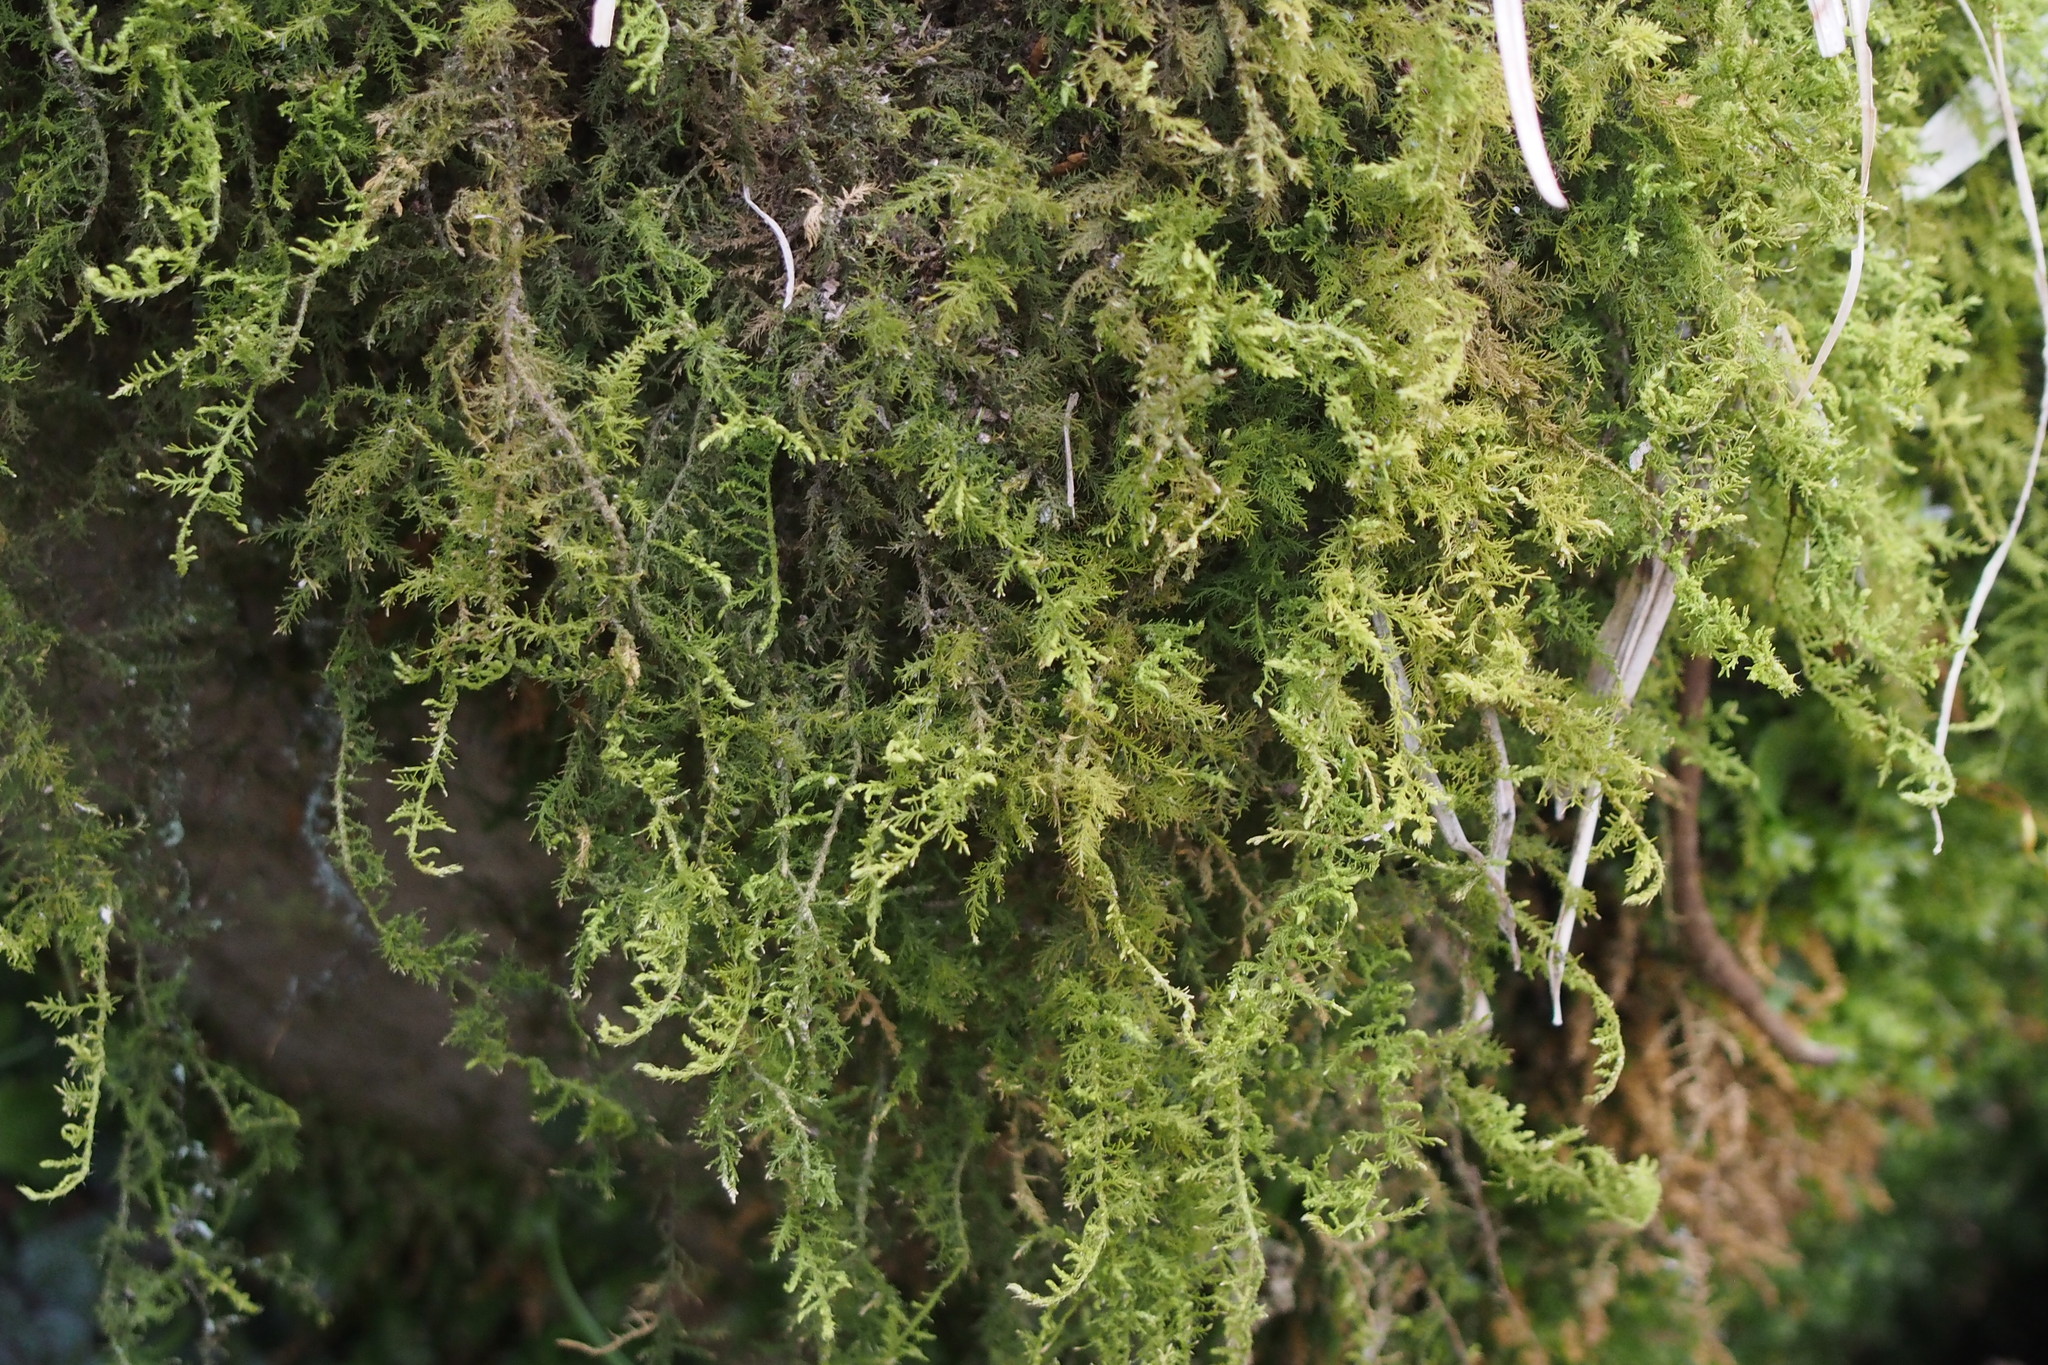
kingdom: Plantae
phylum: Bryophyta
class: Bryopsida
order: Hypnales
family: Hylocomiaceae
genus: Hylocomium
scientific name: Hylocomium splendens
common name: Stairstep moss
